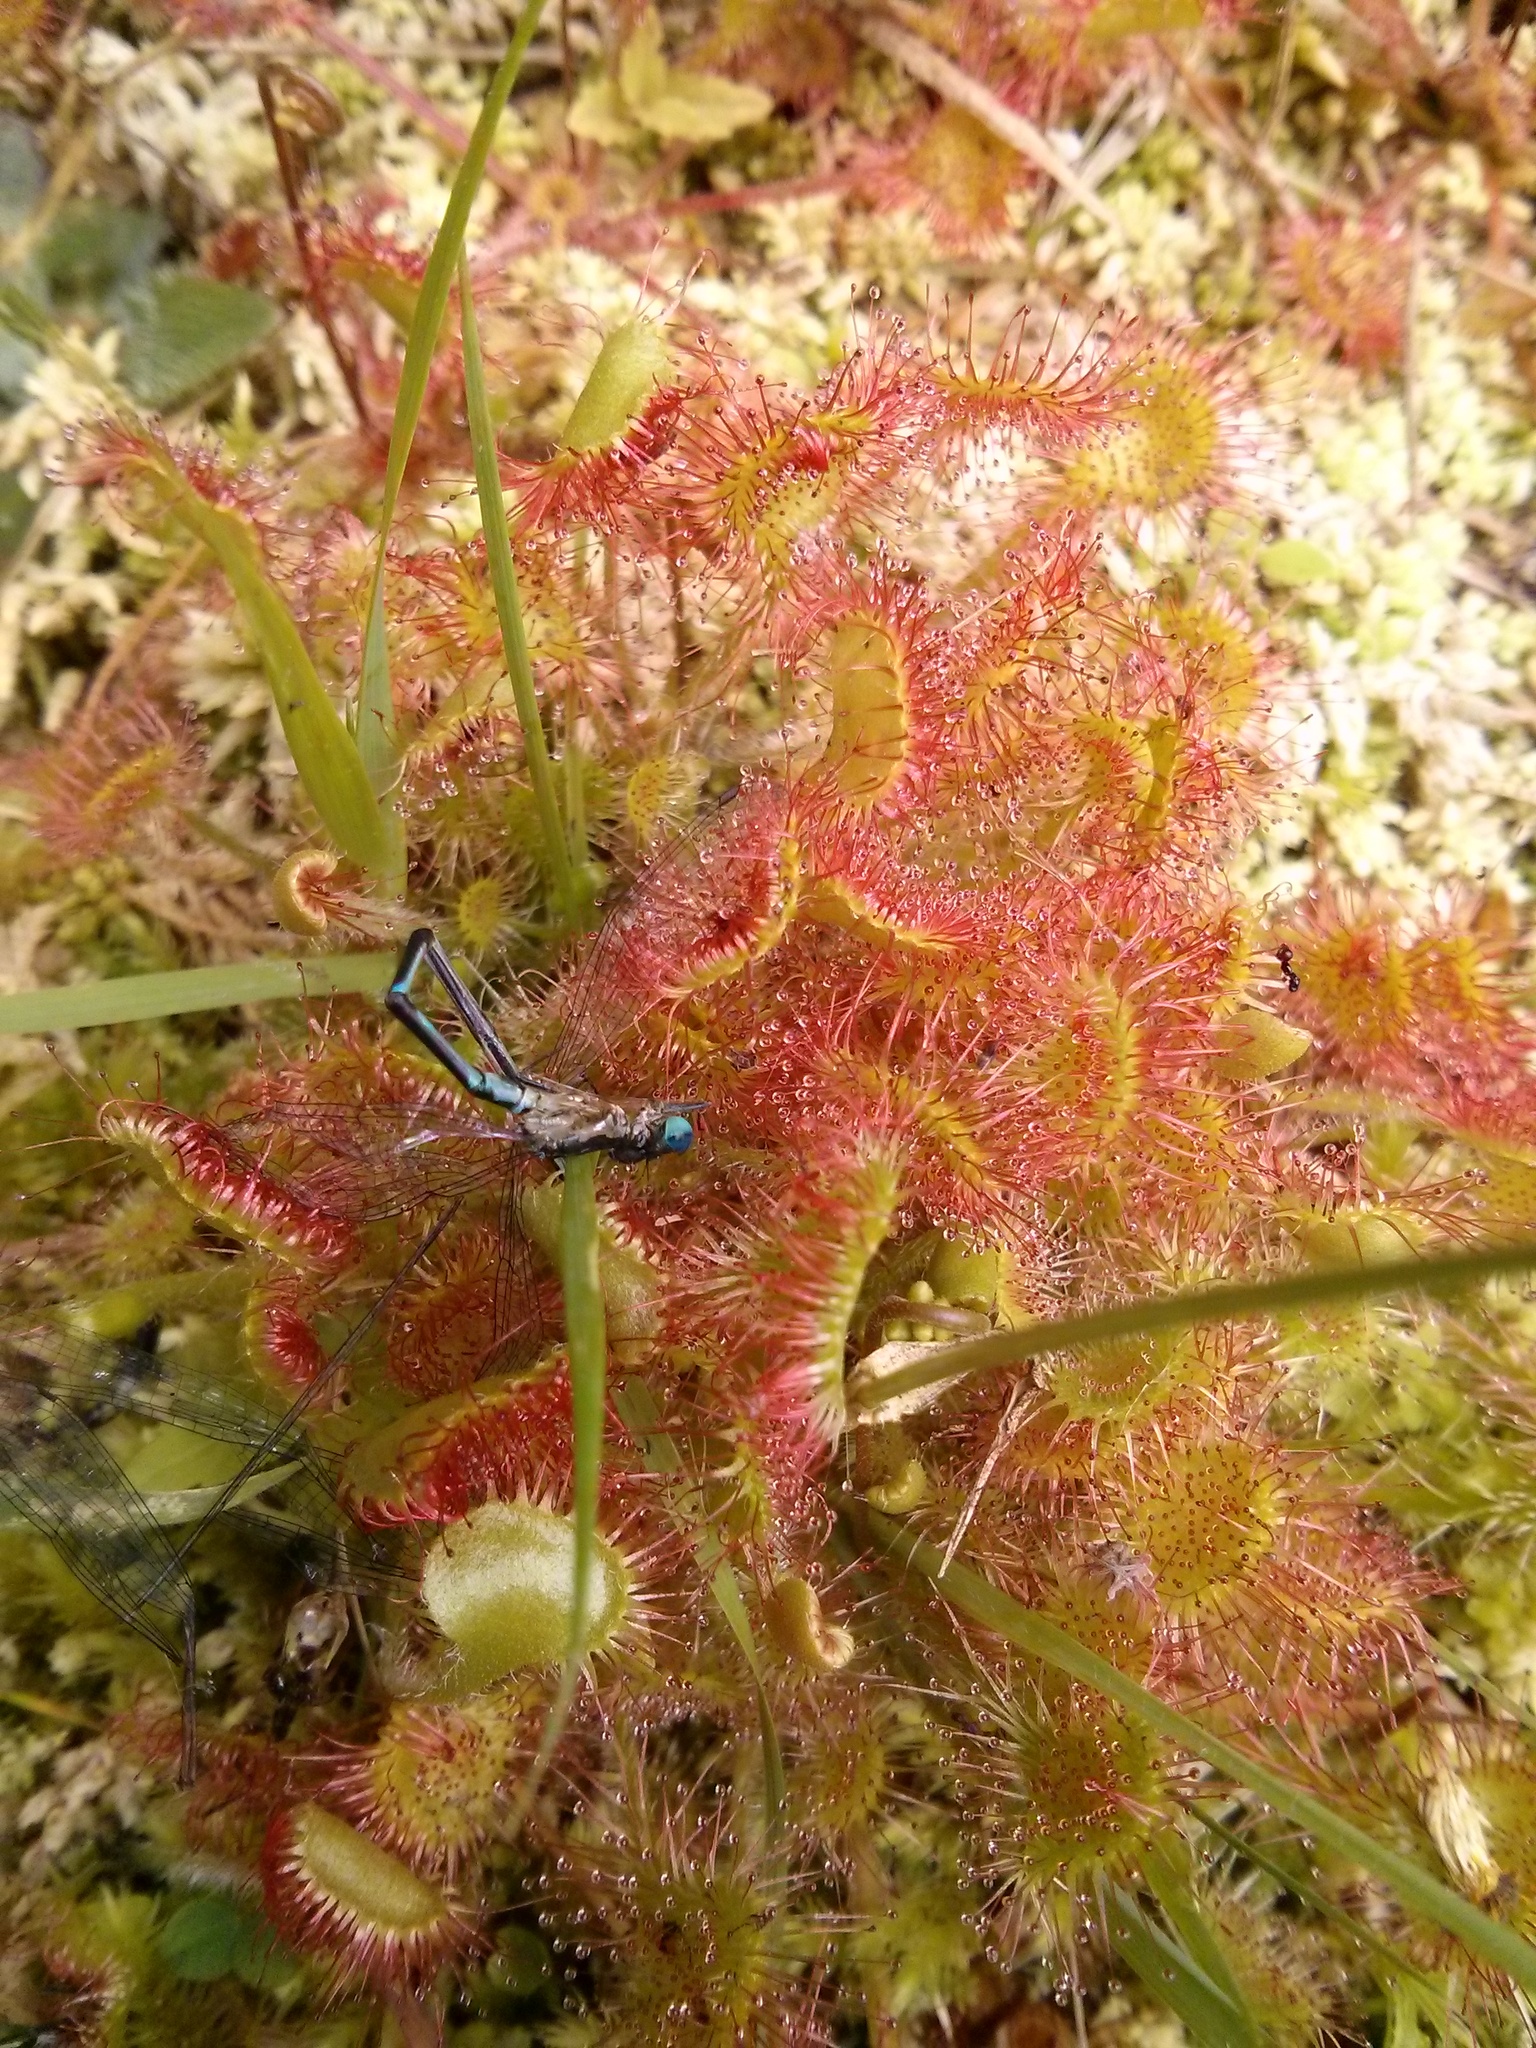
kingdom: Plantae
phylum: Tracheophyta
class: Magnoliopsida
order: Caryophyllales
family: Droseraceae
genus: Drosera
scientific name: Drosera rotundifolia
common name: Round-leaved sundew
